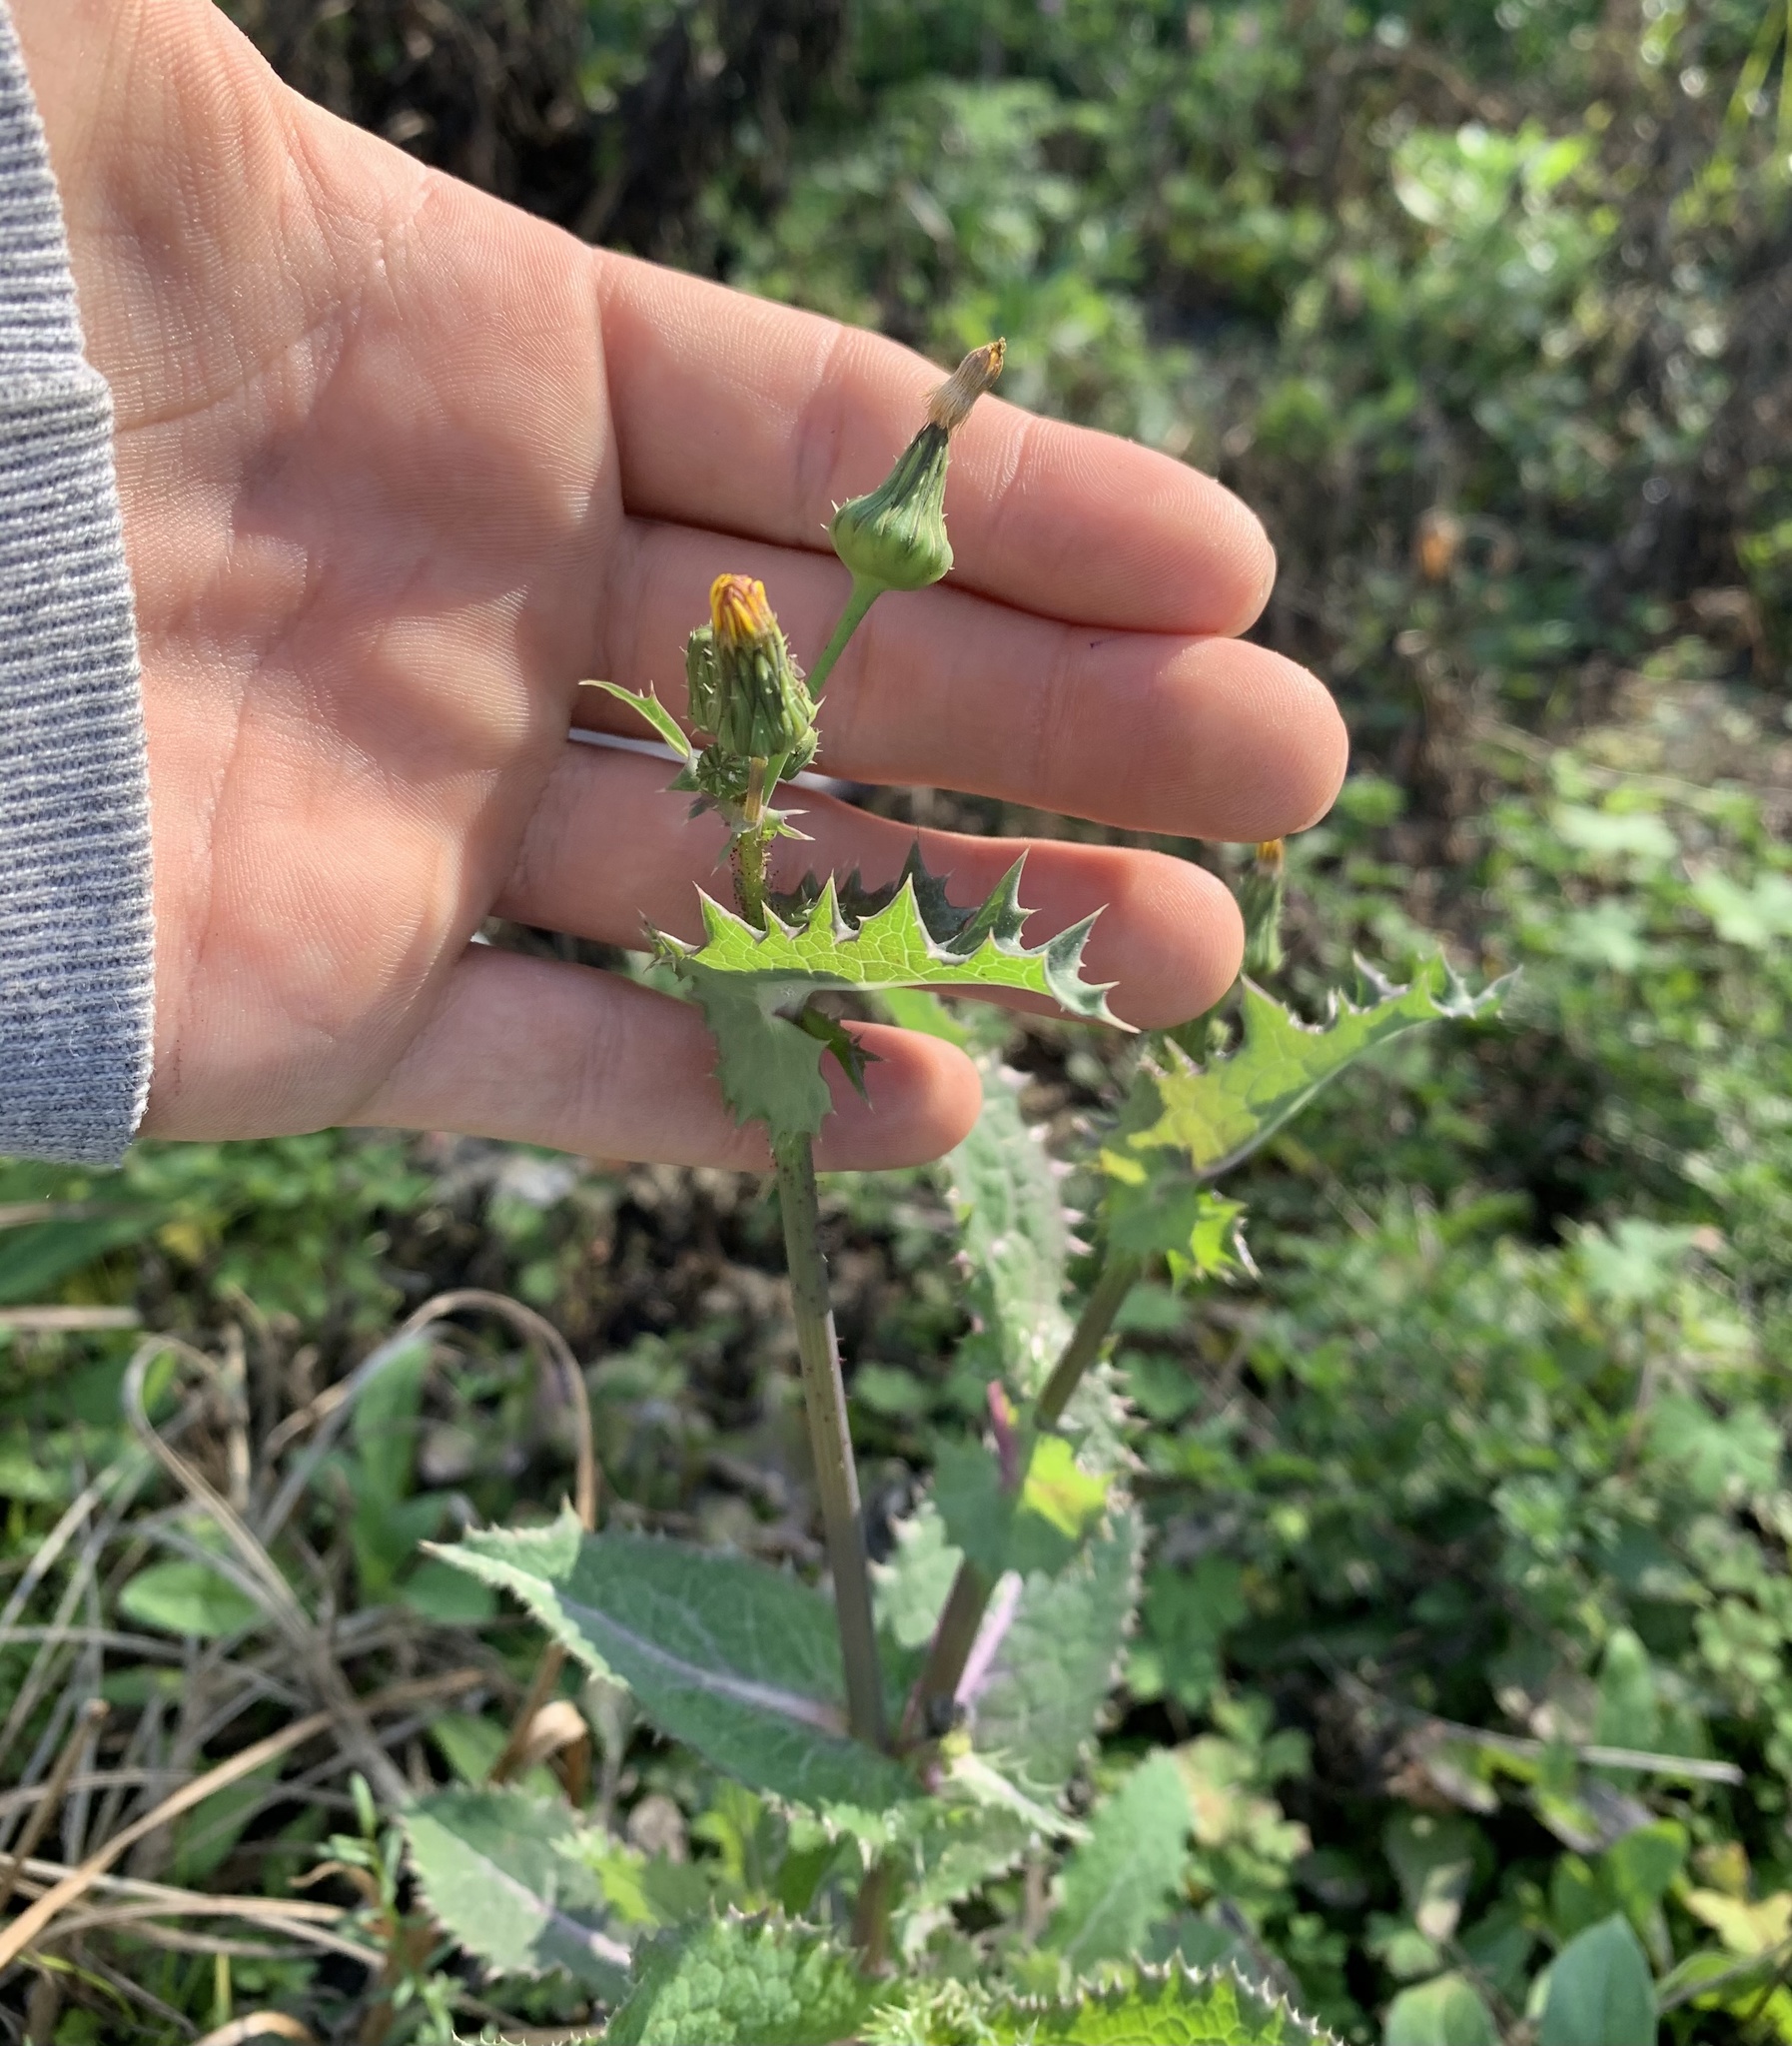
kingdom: Plantae
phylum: Tracheophyta
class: Magnoliopsida
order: Asterales
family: Asteraceae
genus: Sonchus
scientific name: Sonchus asper
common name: Prickly sow-thistle
